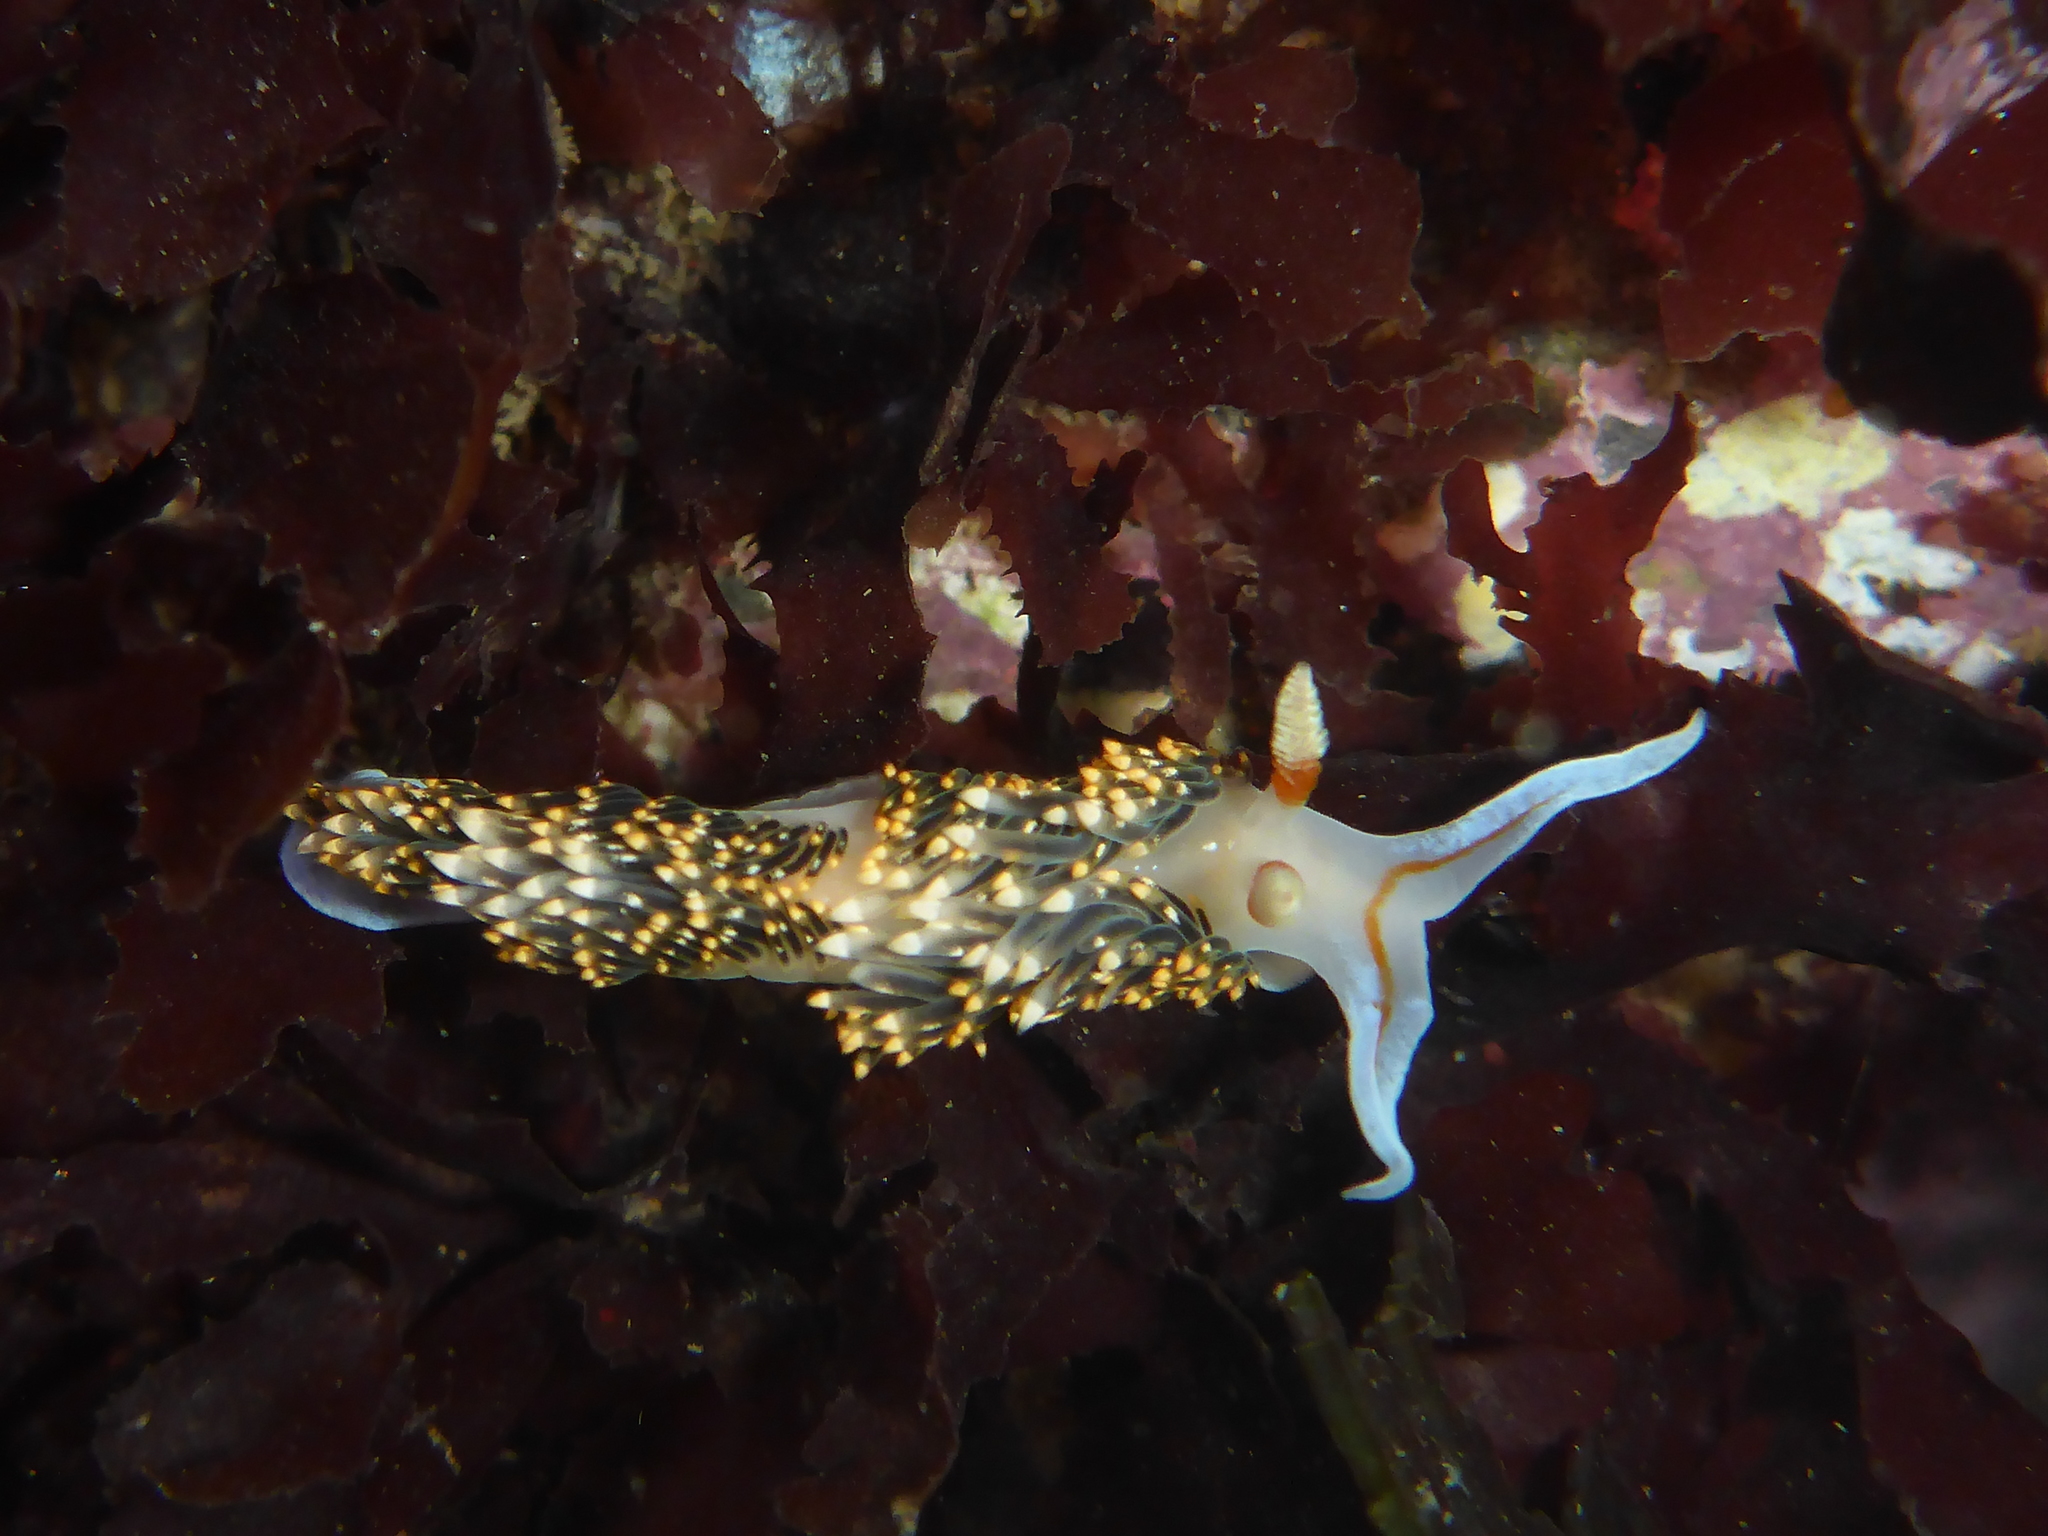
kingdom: Animalia
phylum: Mollusca
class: Gastropoda
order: Nudibranchia
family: Facelinidae
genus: Phidiana
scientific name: Phidiana hiltoni
